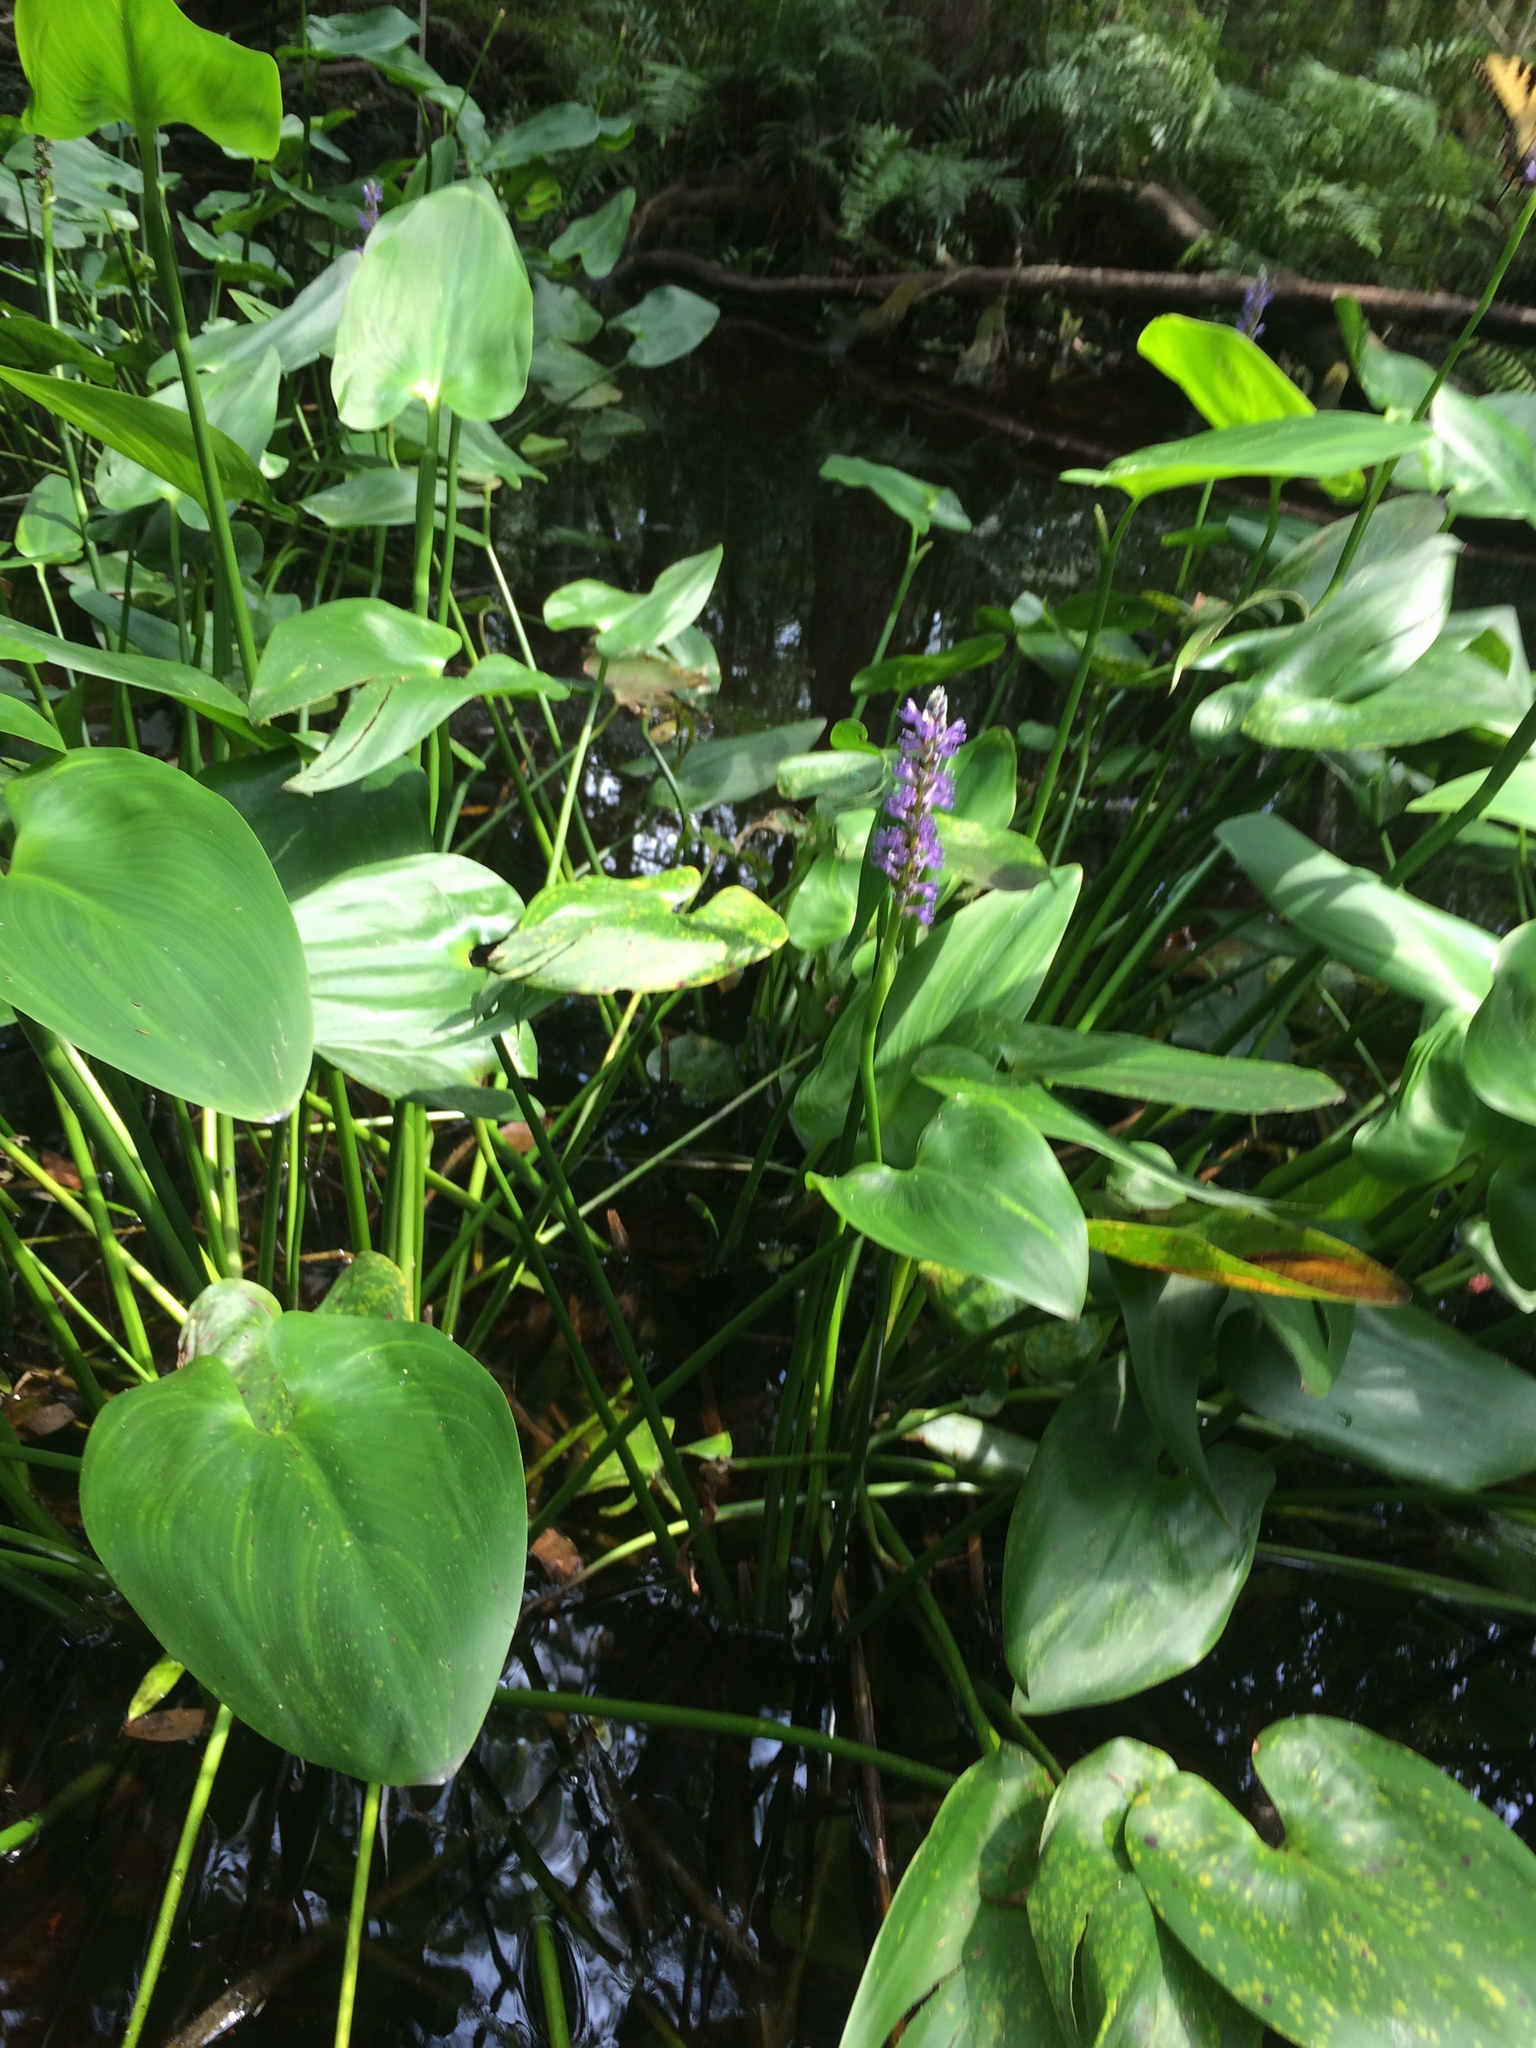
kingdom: Plantae
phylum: Tracheophyta
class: Liliopsida
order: Commelinales
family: Pontederiaceae
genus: Pontederia
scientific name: Pontederia cordata
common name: Pickerelweed
